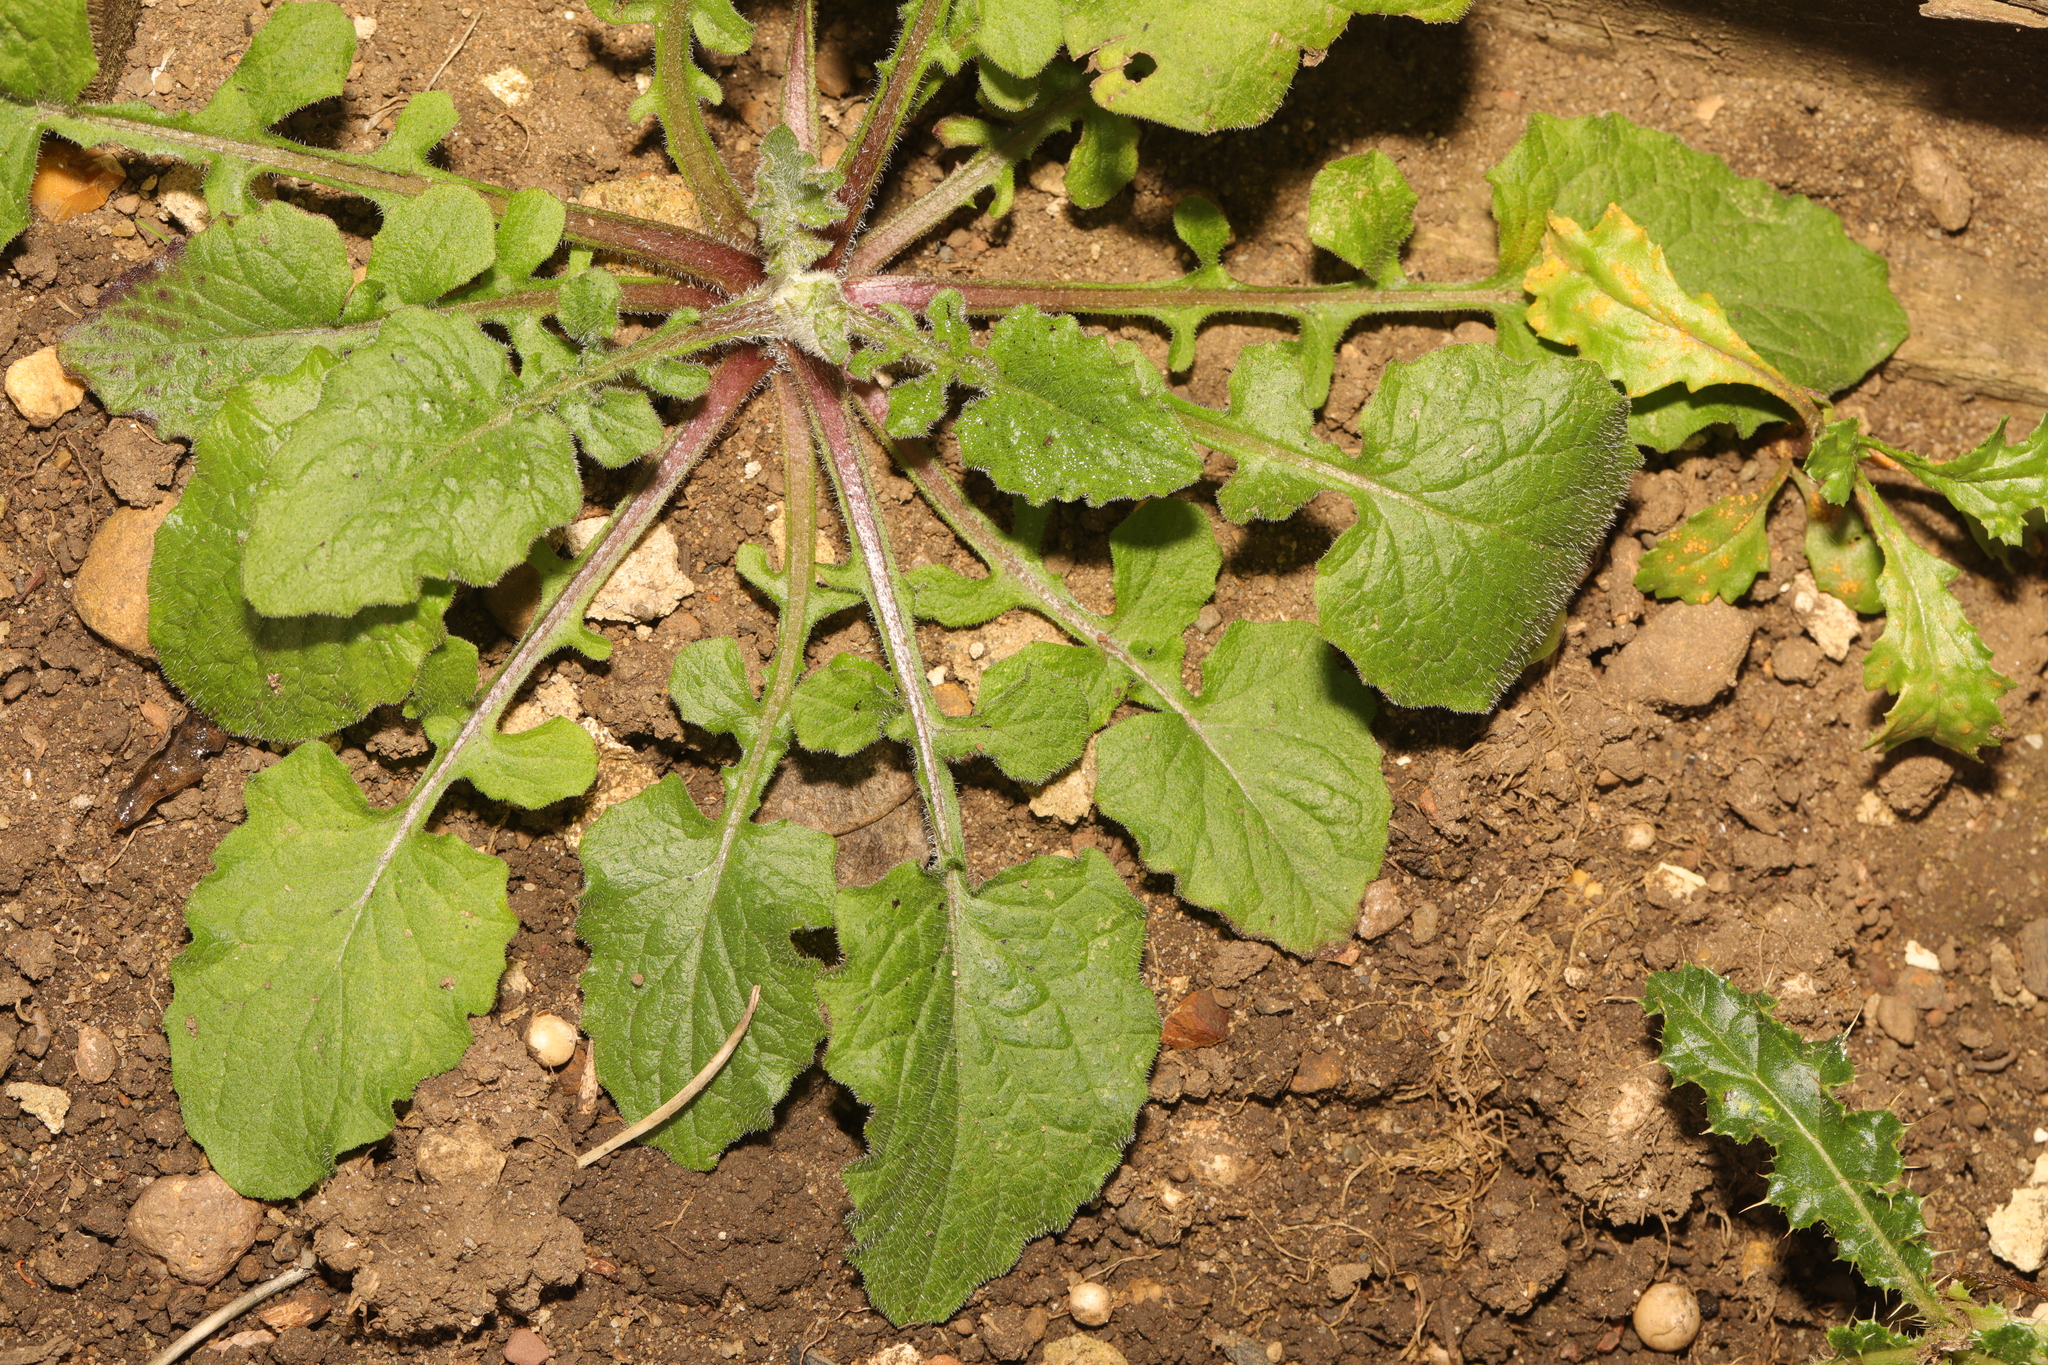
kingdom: Plantae
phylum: Tracheophyta
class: Magnoliopsida
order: Asterales
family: Asteraceae
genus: Lapsana
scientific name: Lapsana communis
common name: Nipplewort
